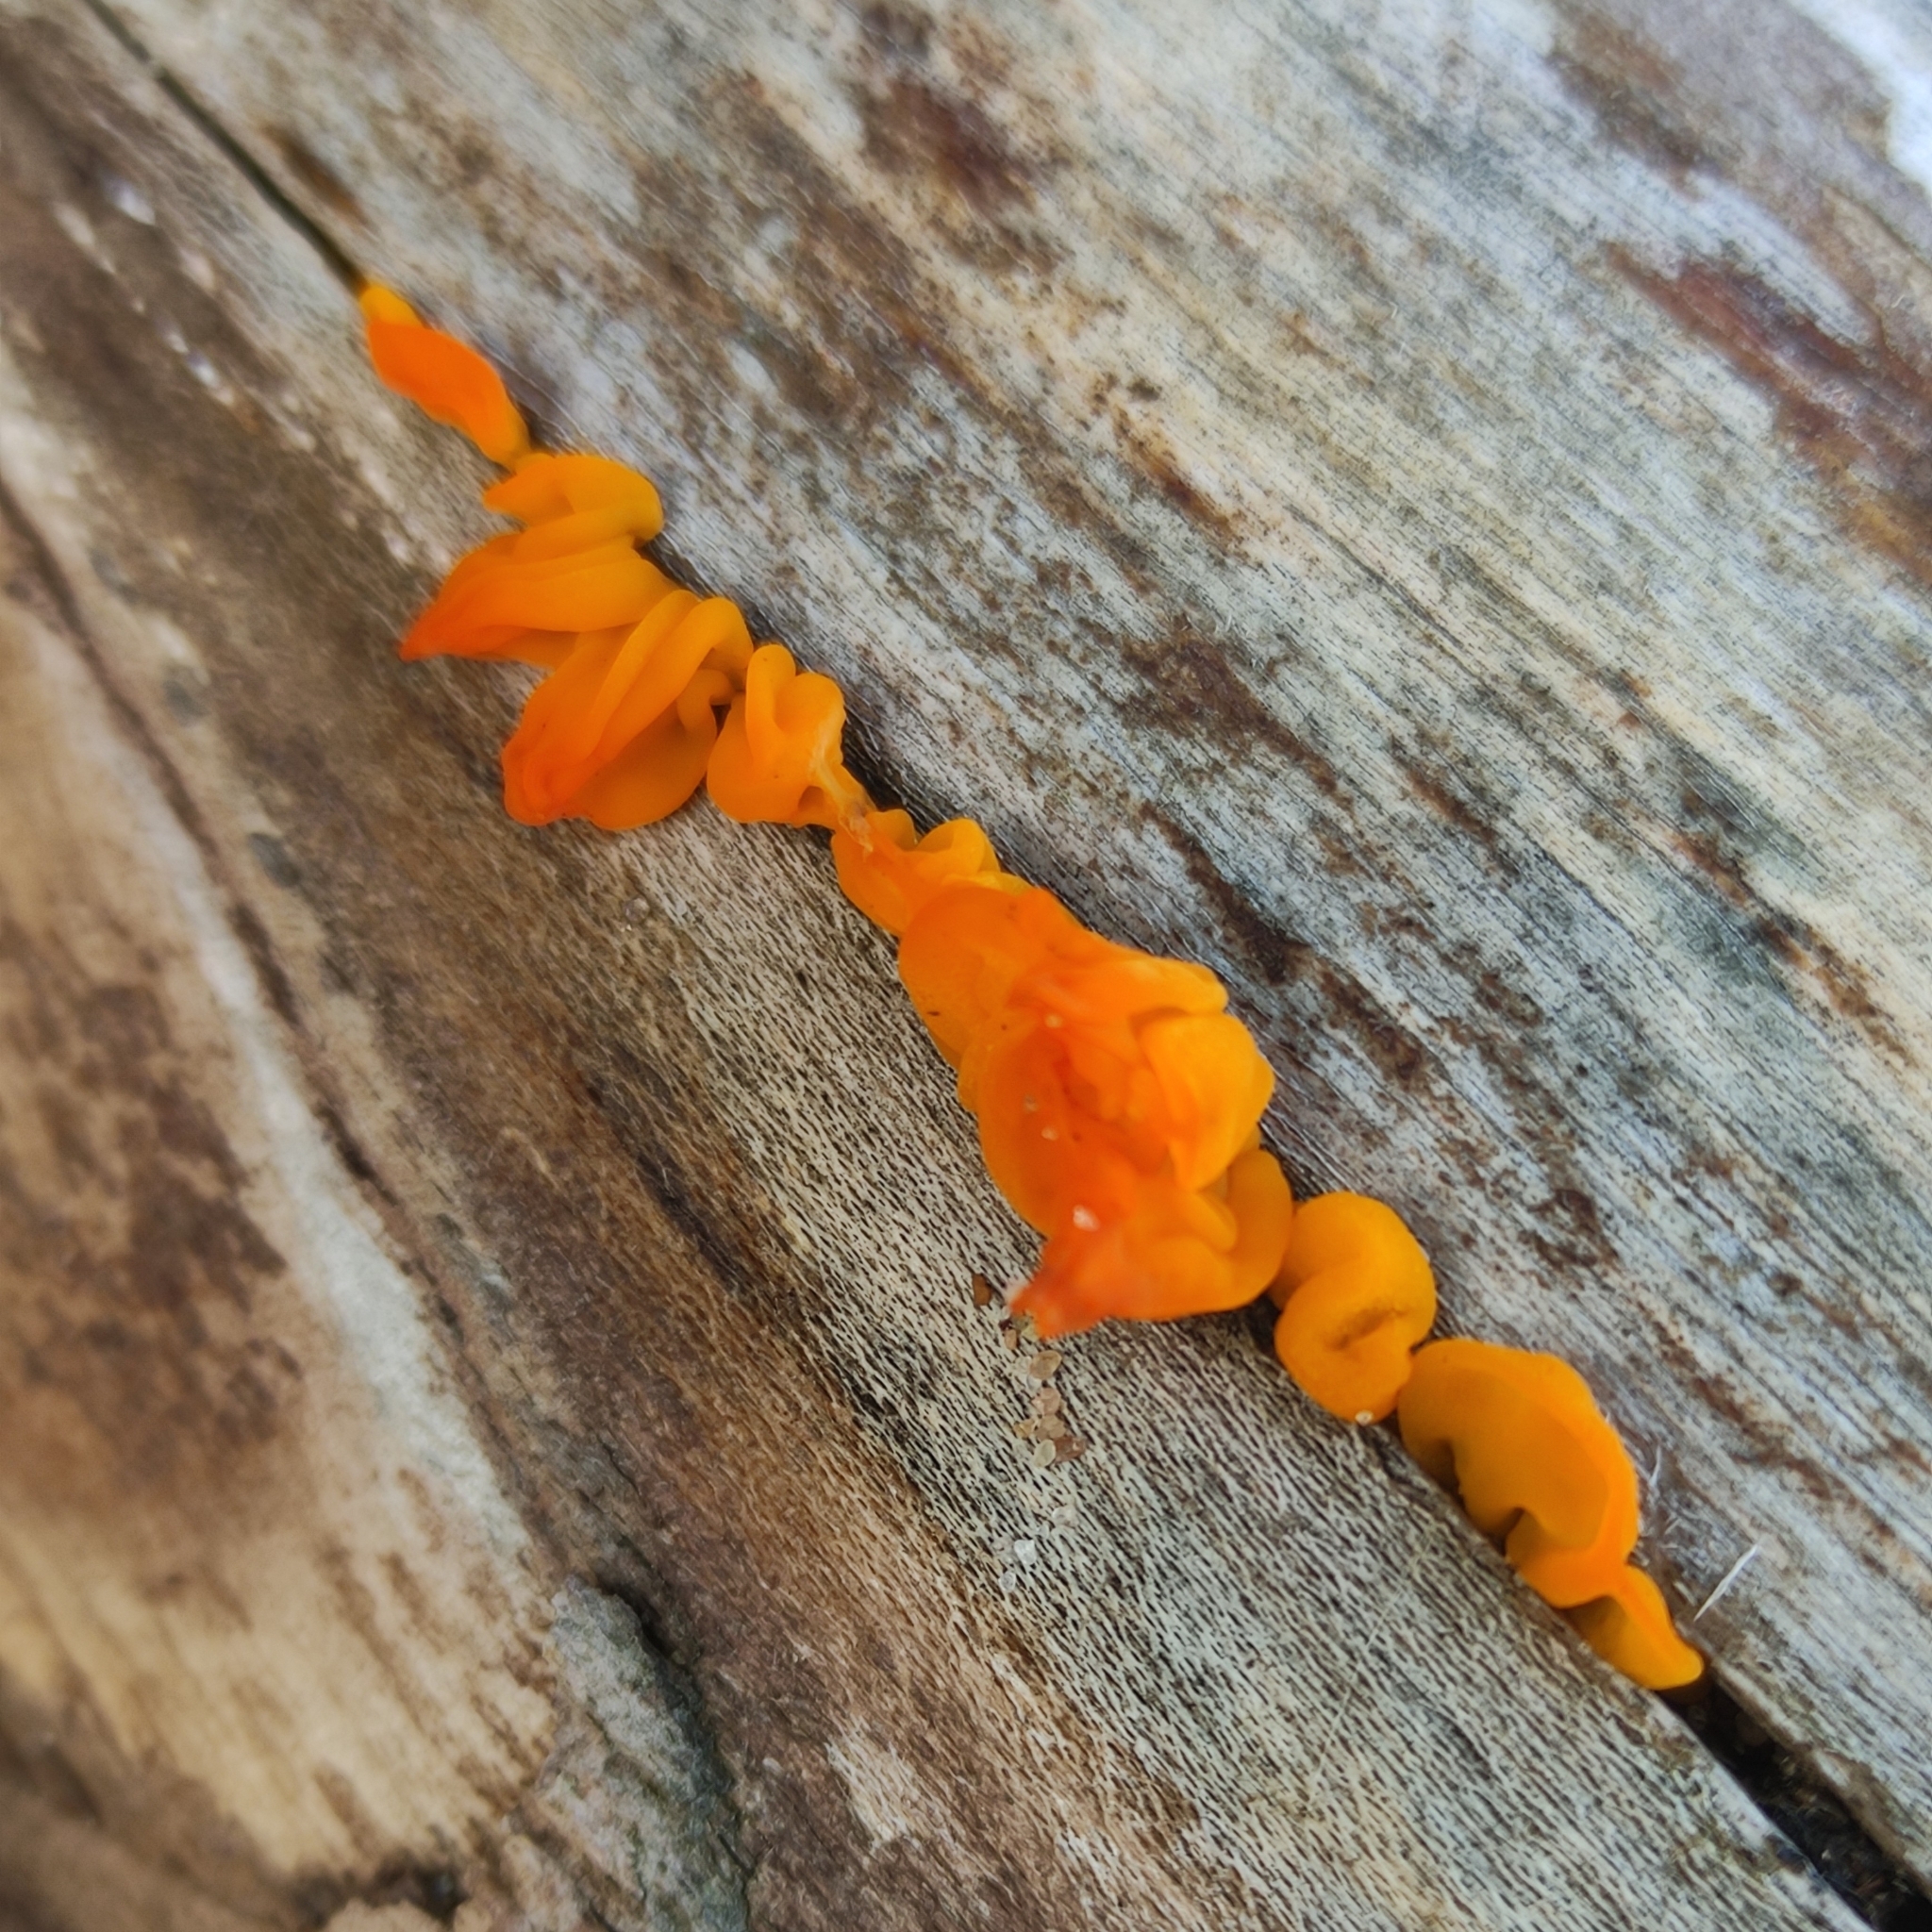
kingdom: Fungi
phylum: Basidiomycota
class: Tremellomycetes
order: Tremellales
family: Tremellaceae
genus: Tremella
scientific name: Tremella mesenterica
